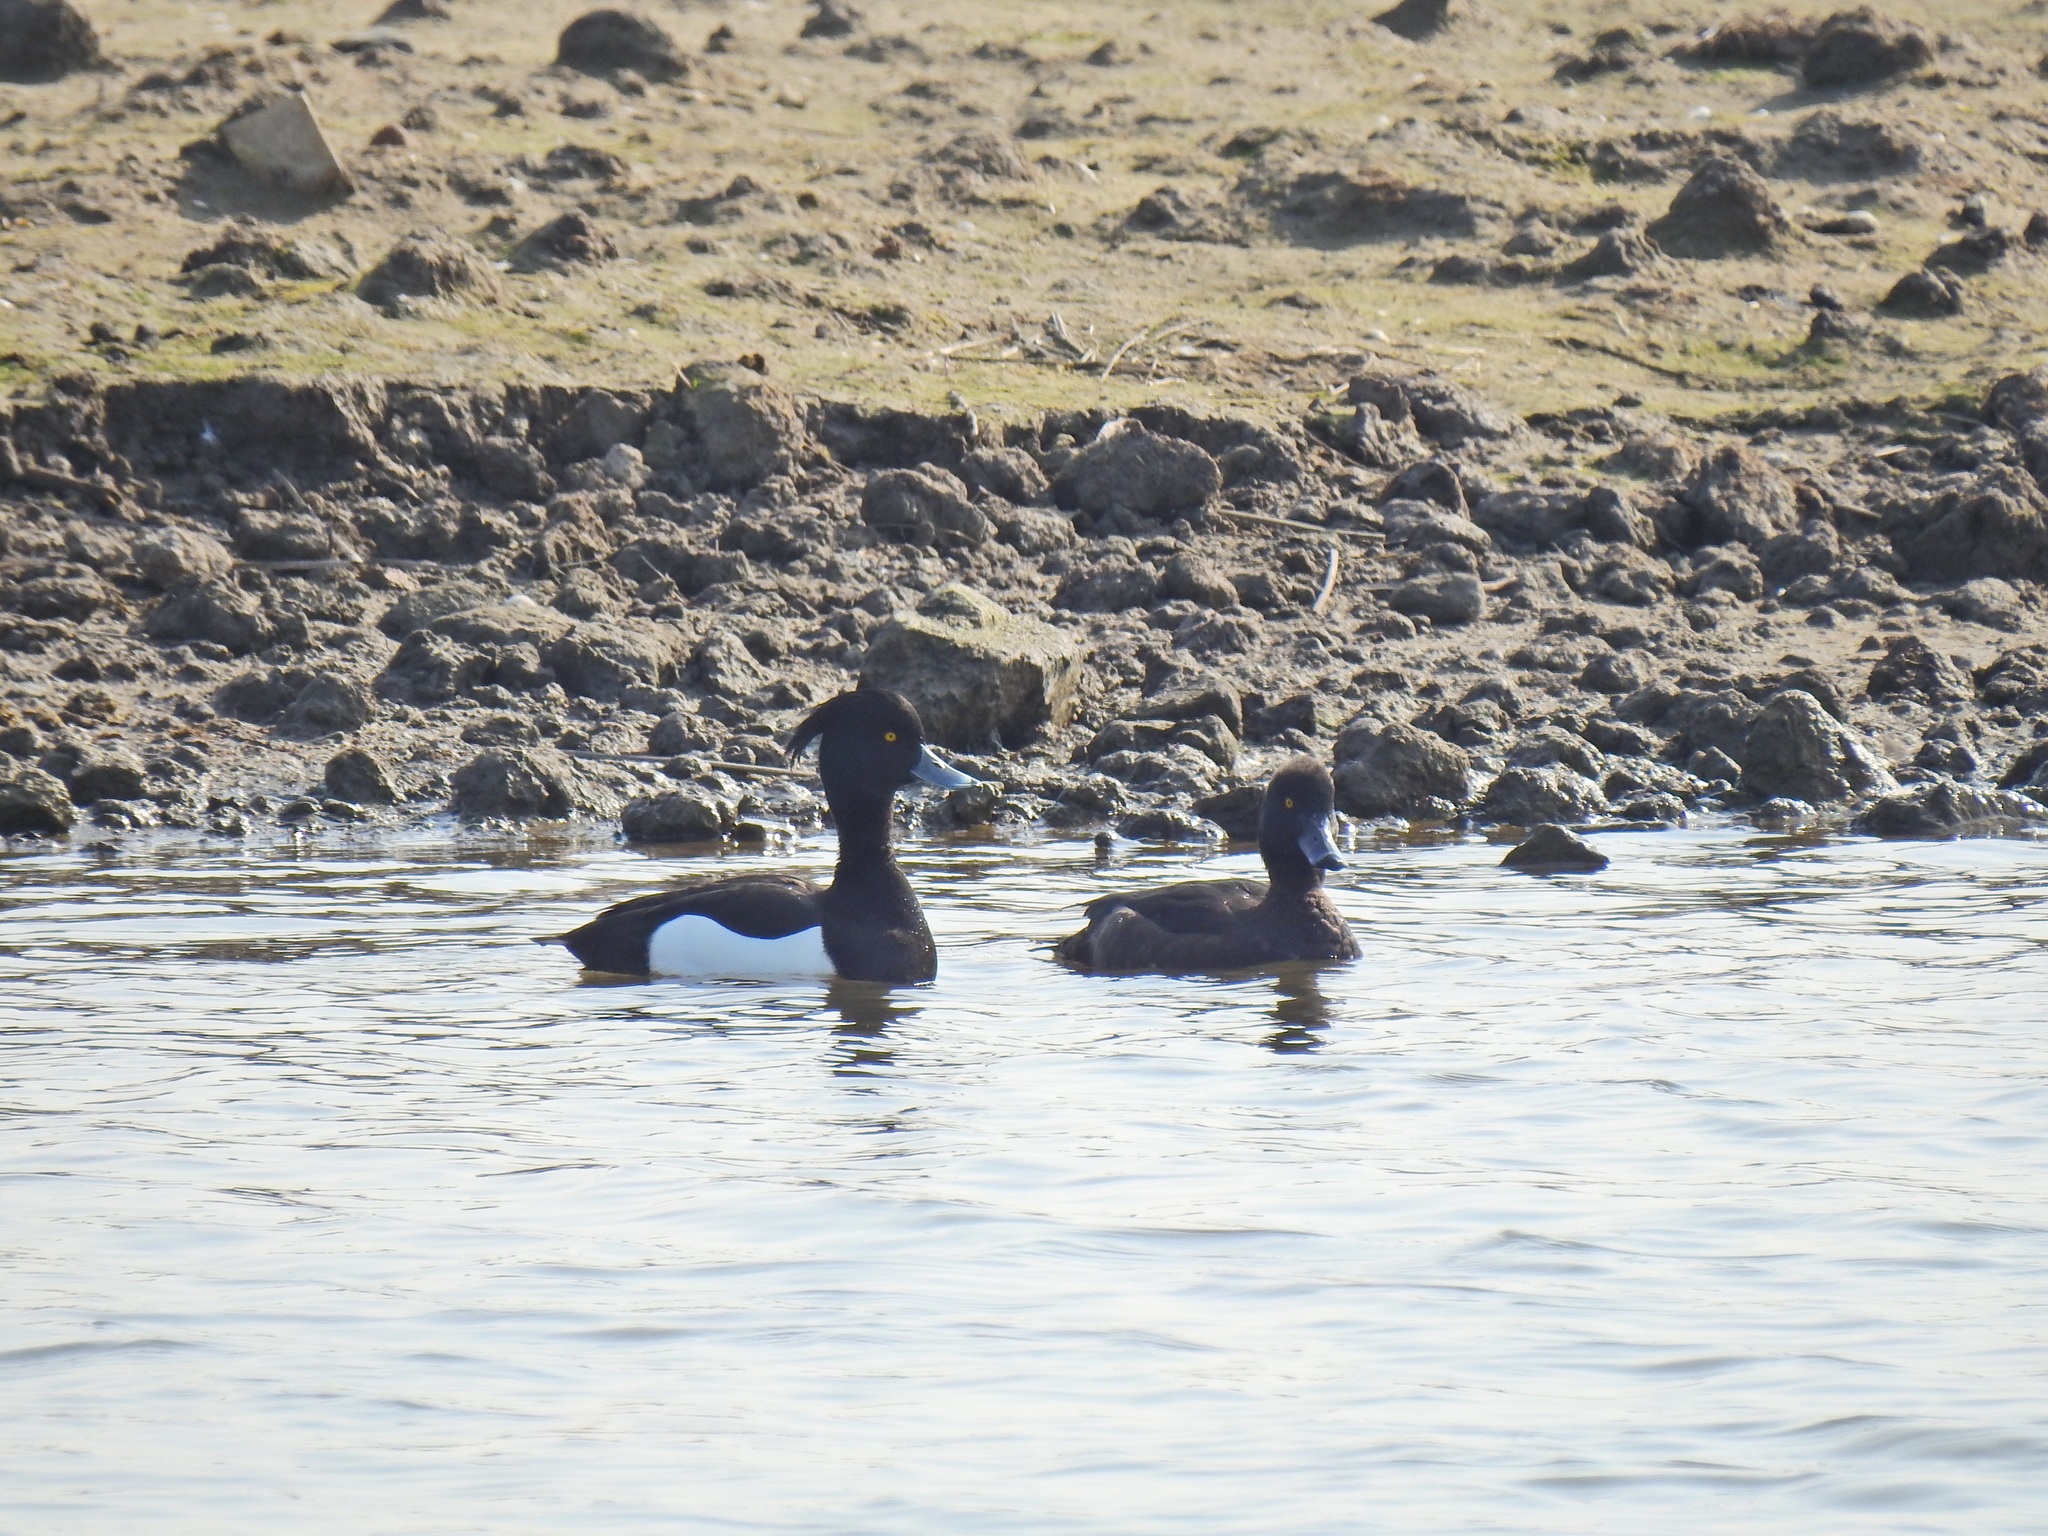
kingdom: Animalia
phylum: Chordata
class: Aves
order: Anseriformes
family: Anatidae
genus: Aythya
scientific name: Aythya fuligula
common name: Tufted duck
